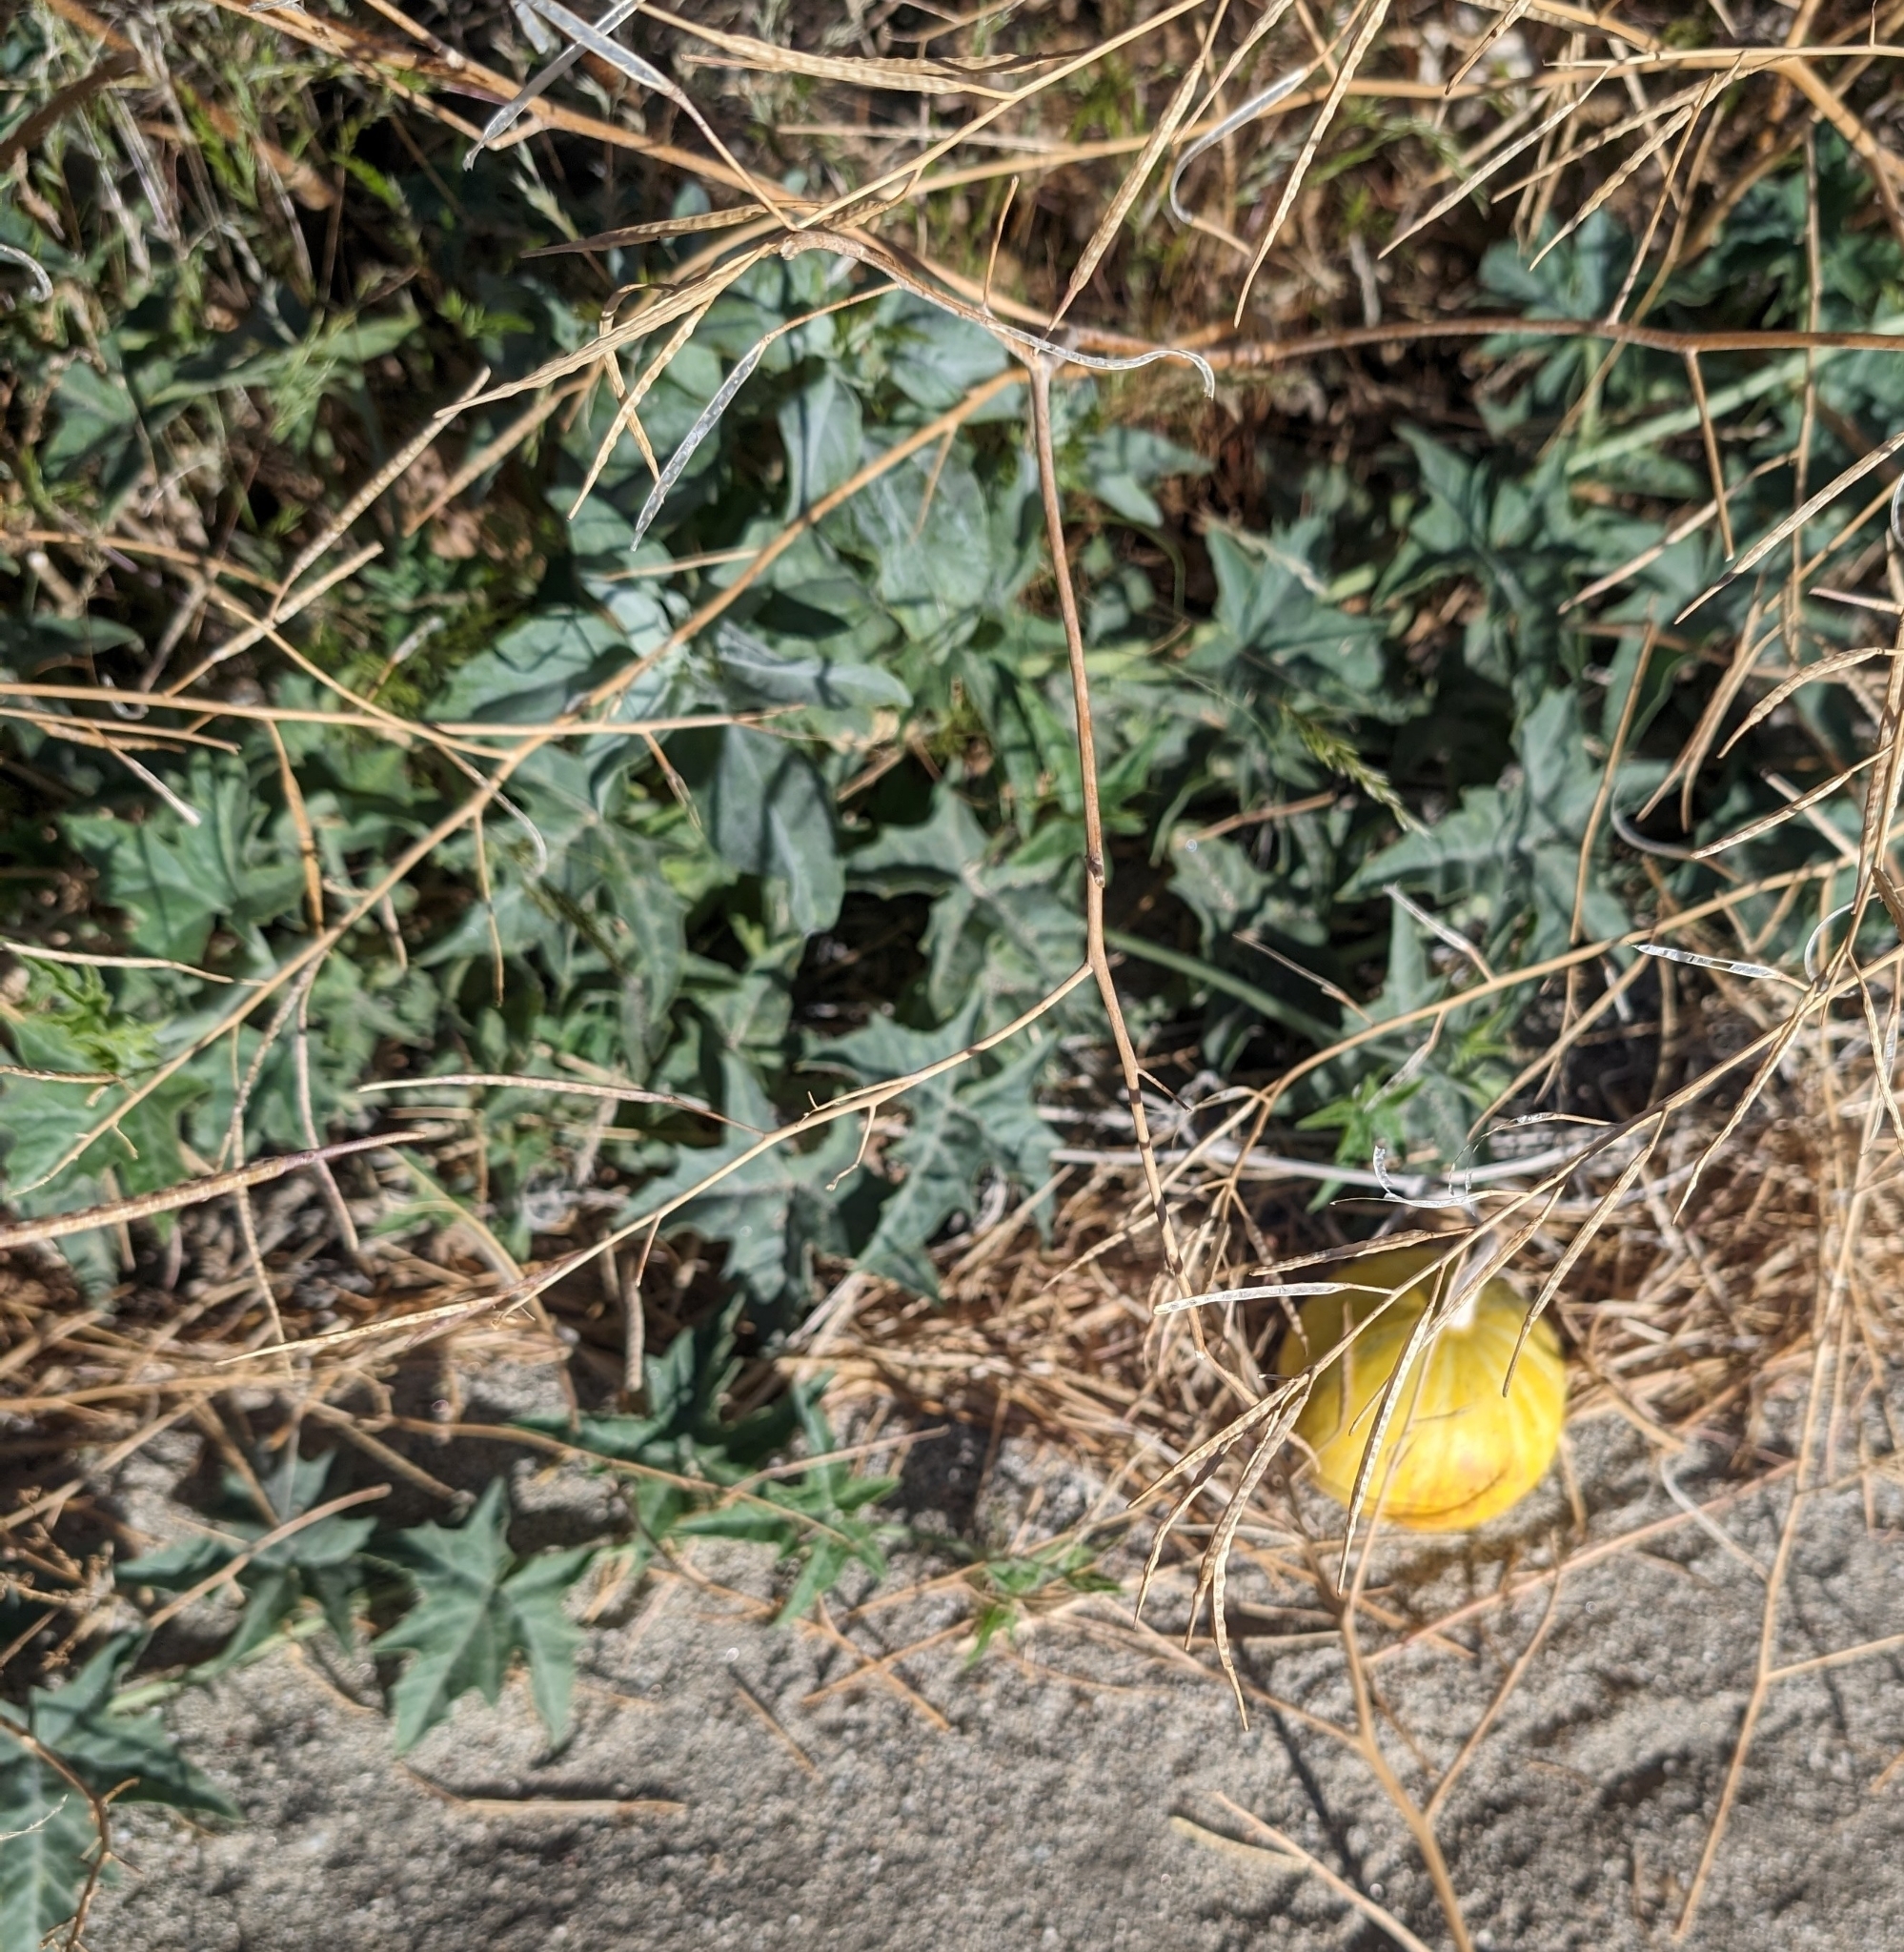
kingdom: Plantae
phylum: Tracheophyta
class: Magnoliopsida
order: Cucurbitales
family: Cucurbitaceae
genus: Cucurbita
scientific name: Cucurbita palmata
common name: Coyote-melon
